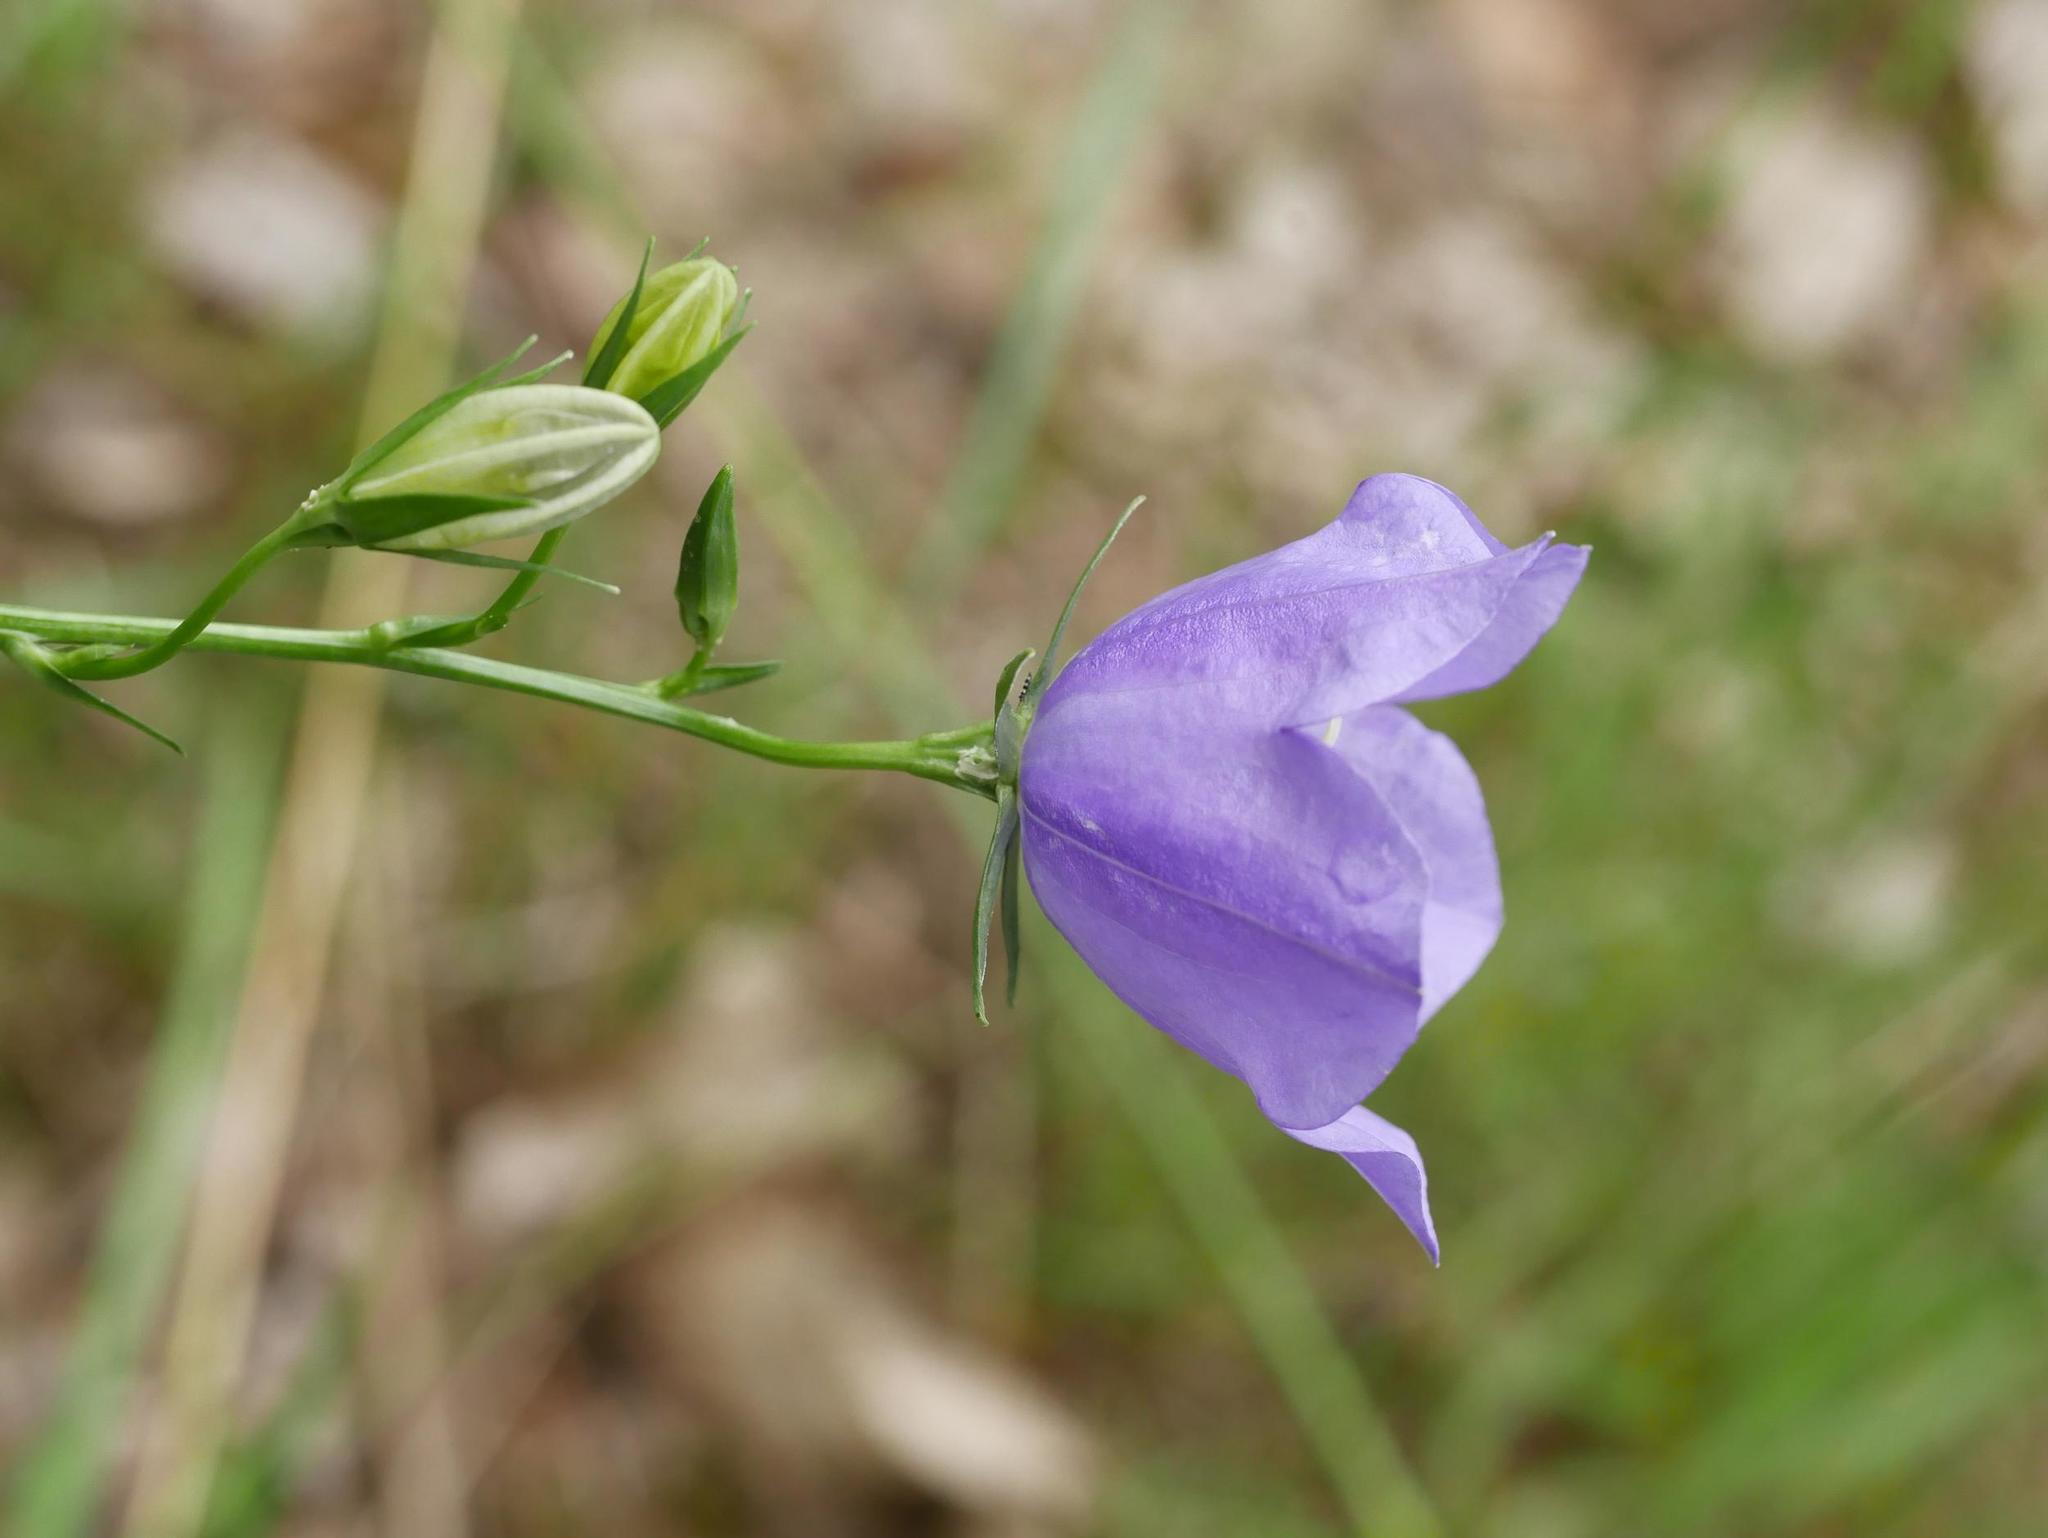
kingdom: Plantae
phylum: Tracheophyta
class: Magnoliopsida
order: Asterales
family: Campanulaceae
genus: Campanula
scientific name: Campanula persicifolia
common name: Peach-leaved bellflower
